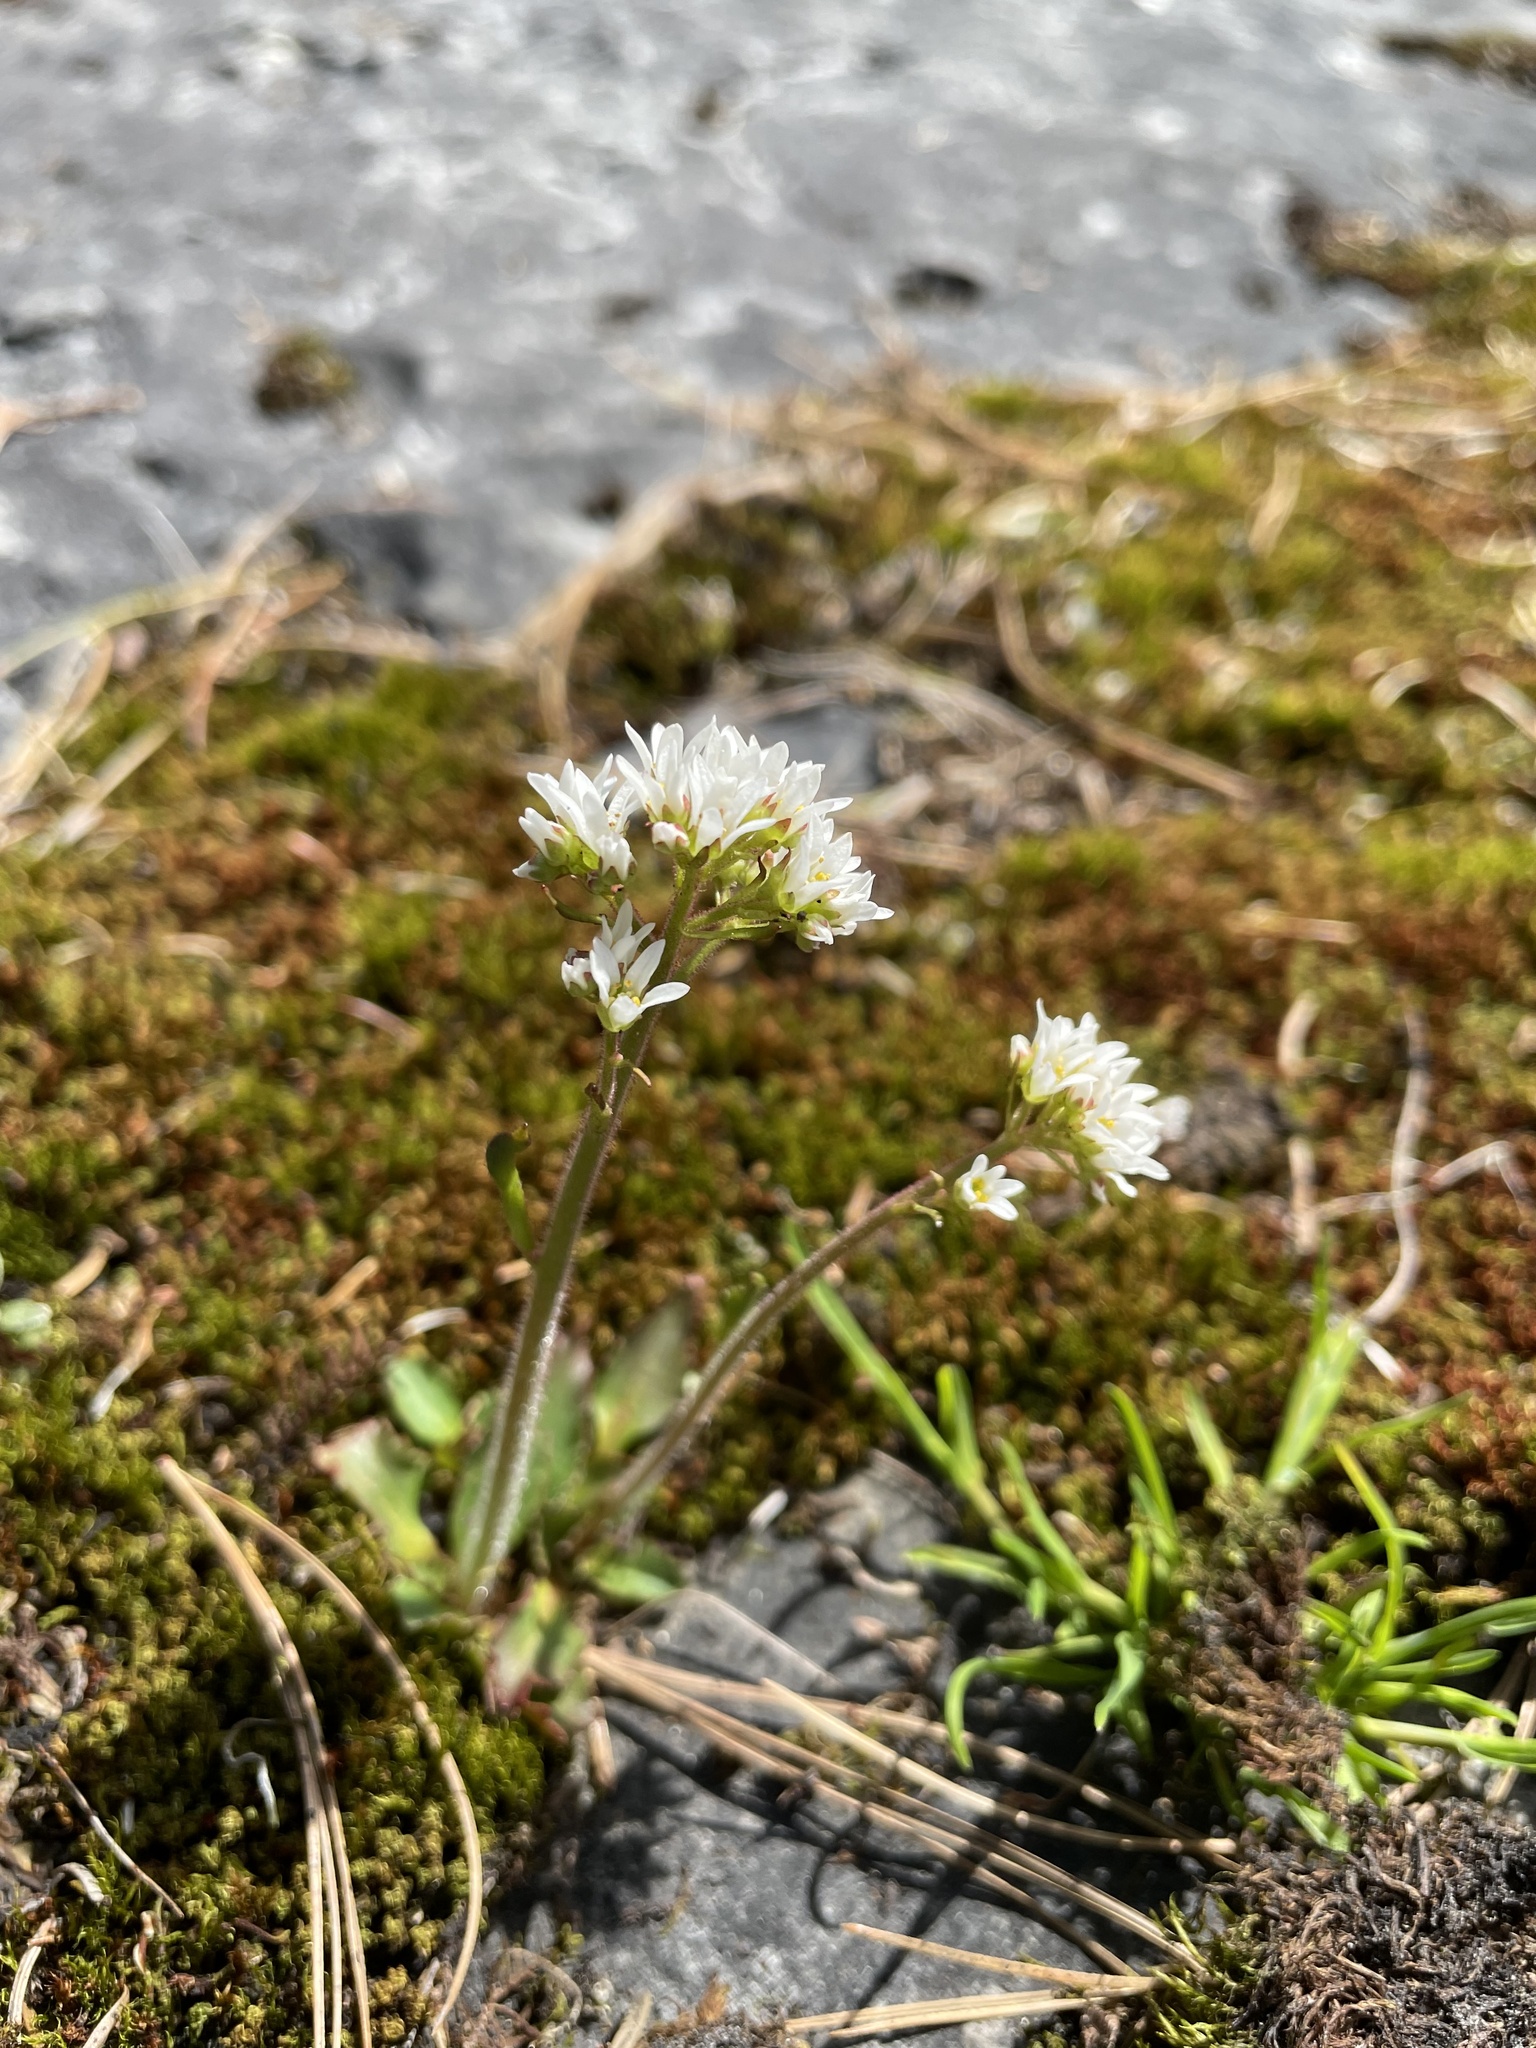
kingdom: Plantae
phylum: Tracheophyta
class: Magnoliopsida
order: Saxifragales
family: Saxifragaceae
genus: Micranthes
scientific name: Micranthes virginiensis
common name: Early saxifrage
